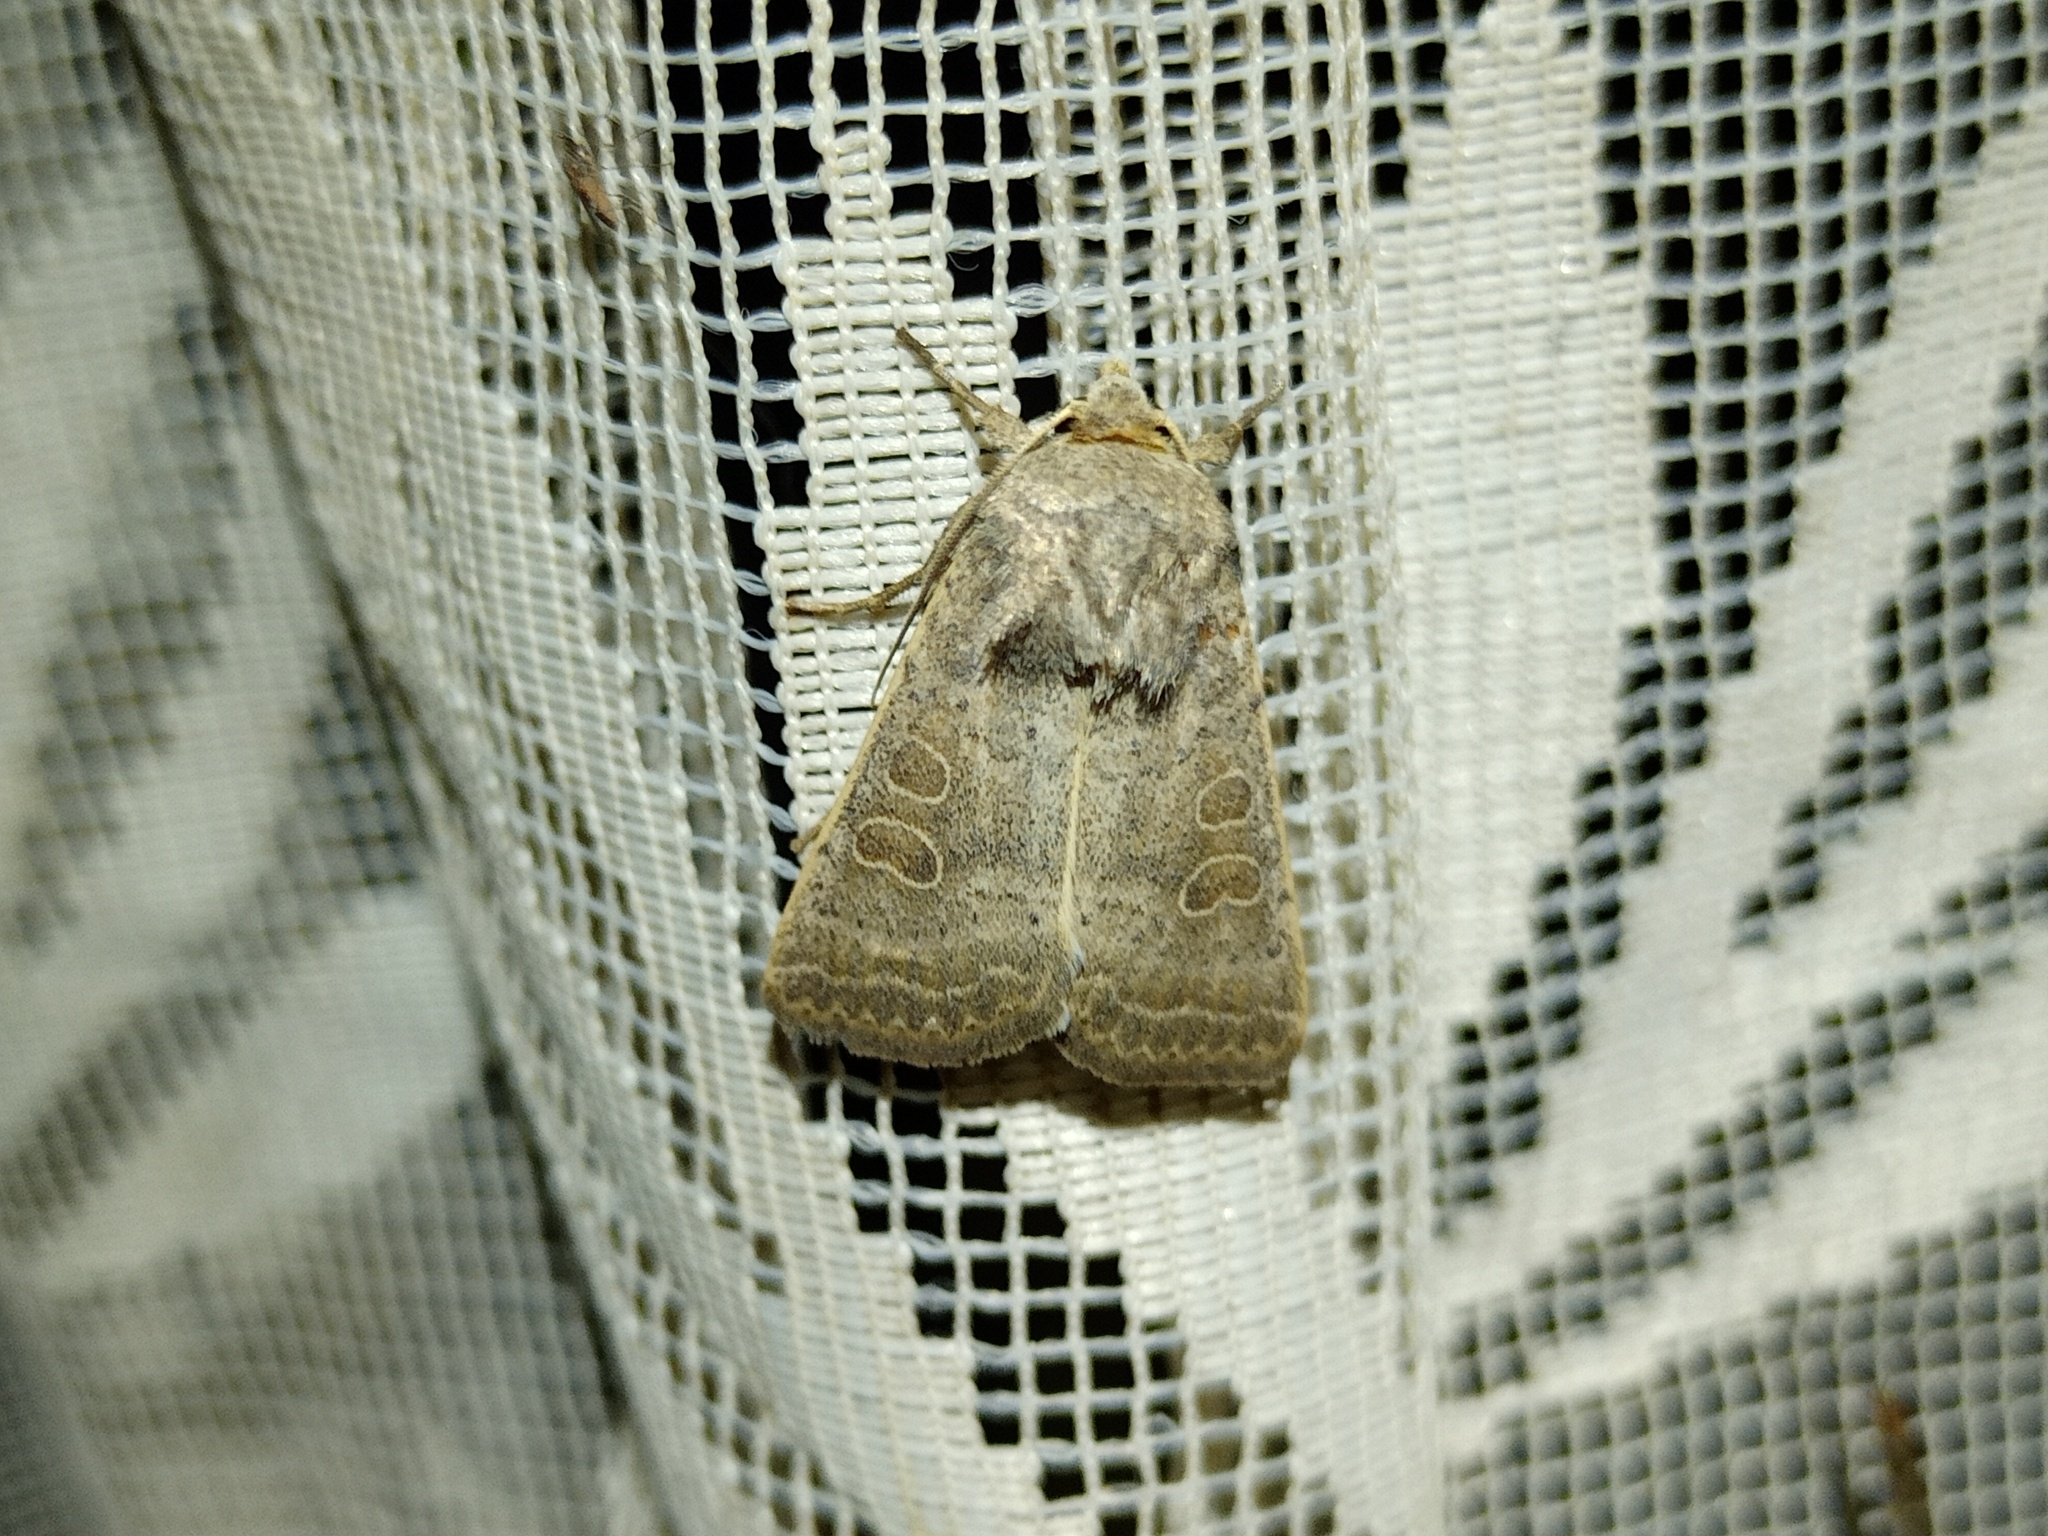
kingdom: Animalia
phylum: Arthropoda
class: Insecta
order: Lepidoptera
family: Noctuidae
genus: Hoplodrina
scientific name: Hoplodrina ambigua
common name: Vine's rustic
